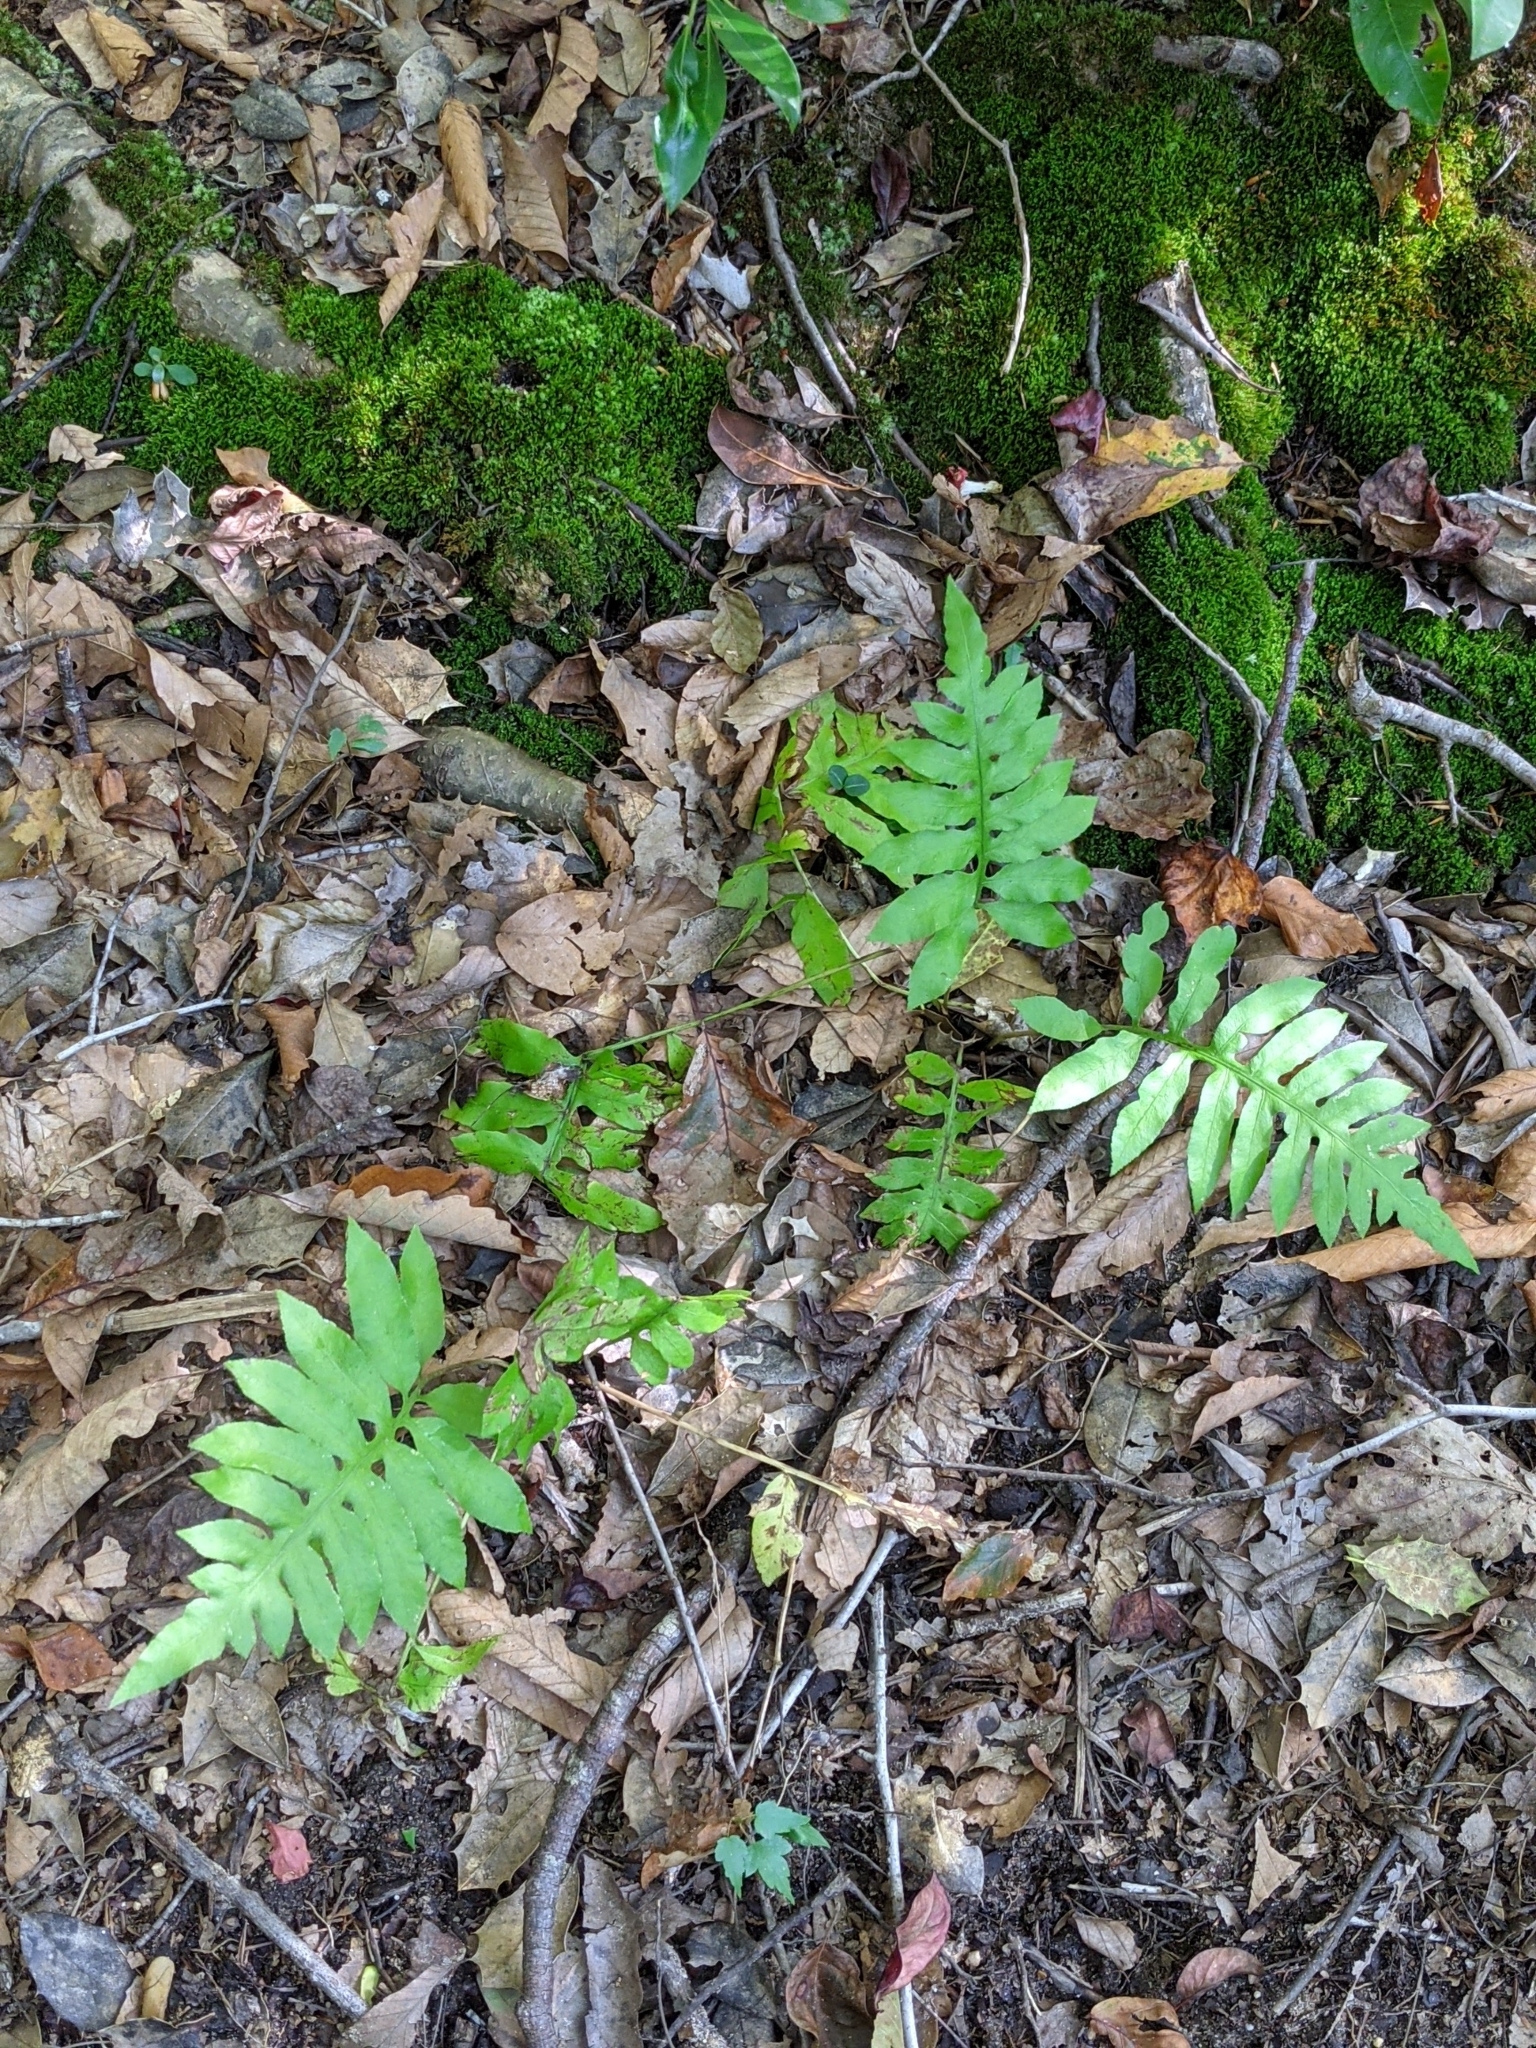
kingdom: Plantae
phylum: Tracheophyta
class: Polypodiopsida
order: Polypodiales
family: Blechnaceae
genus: Lorinseria
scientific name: Lorinseria areolata
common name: Dwarf chain fern
